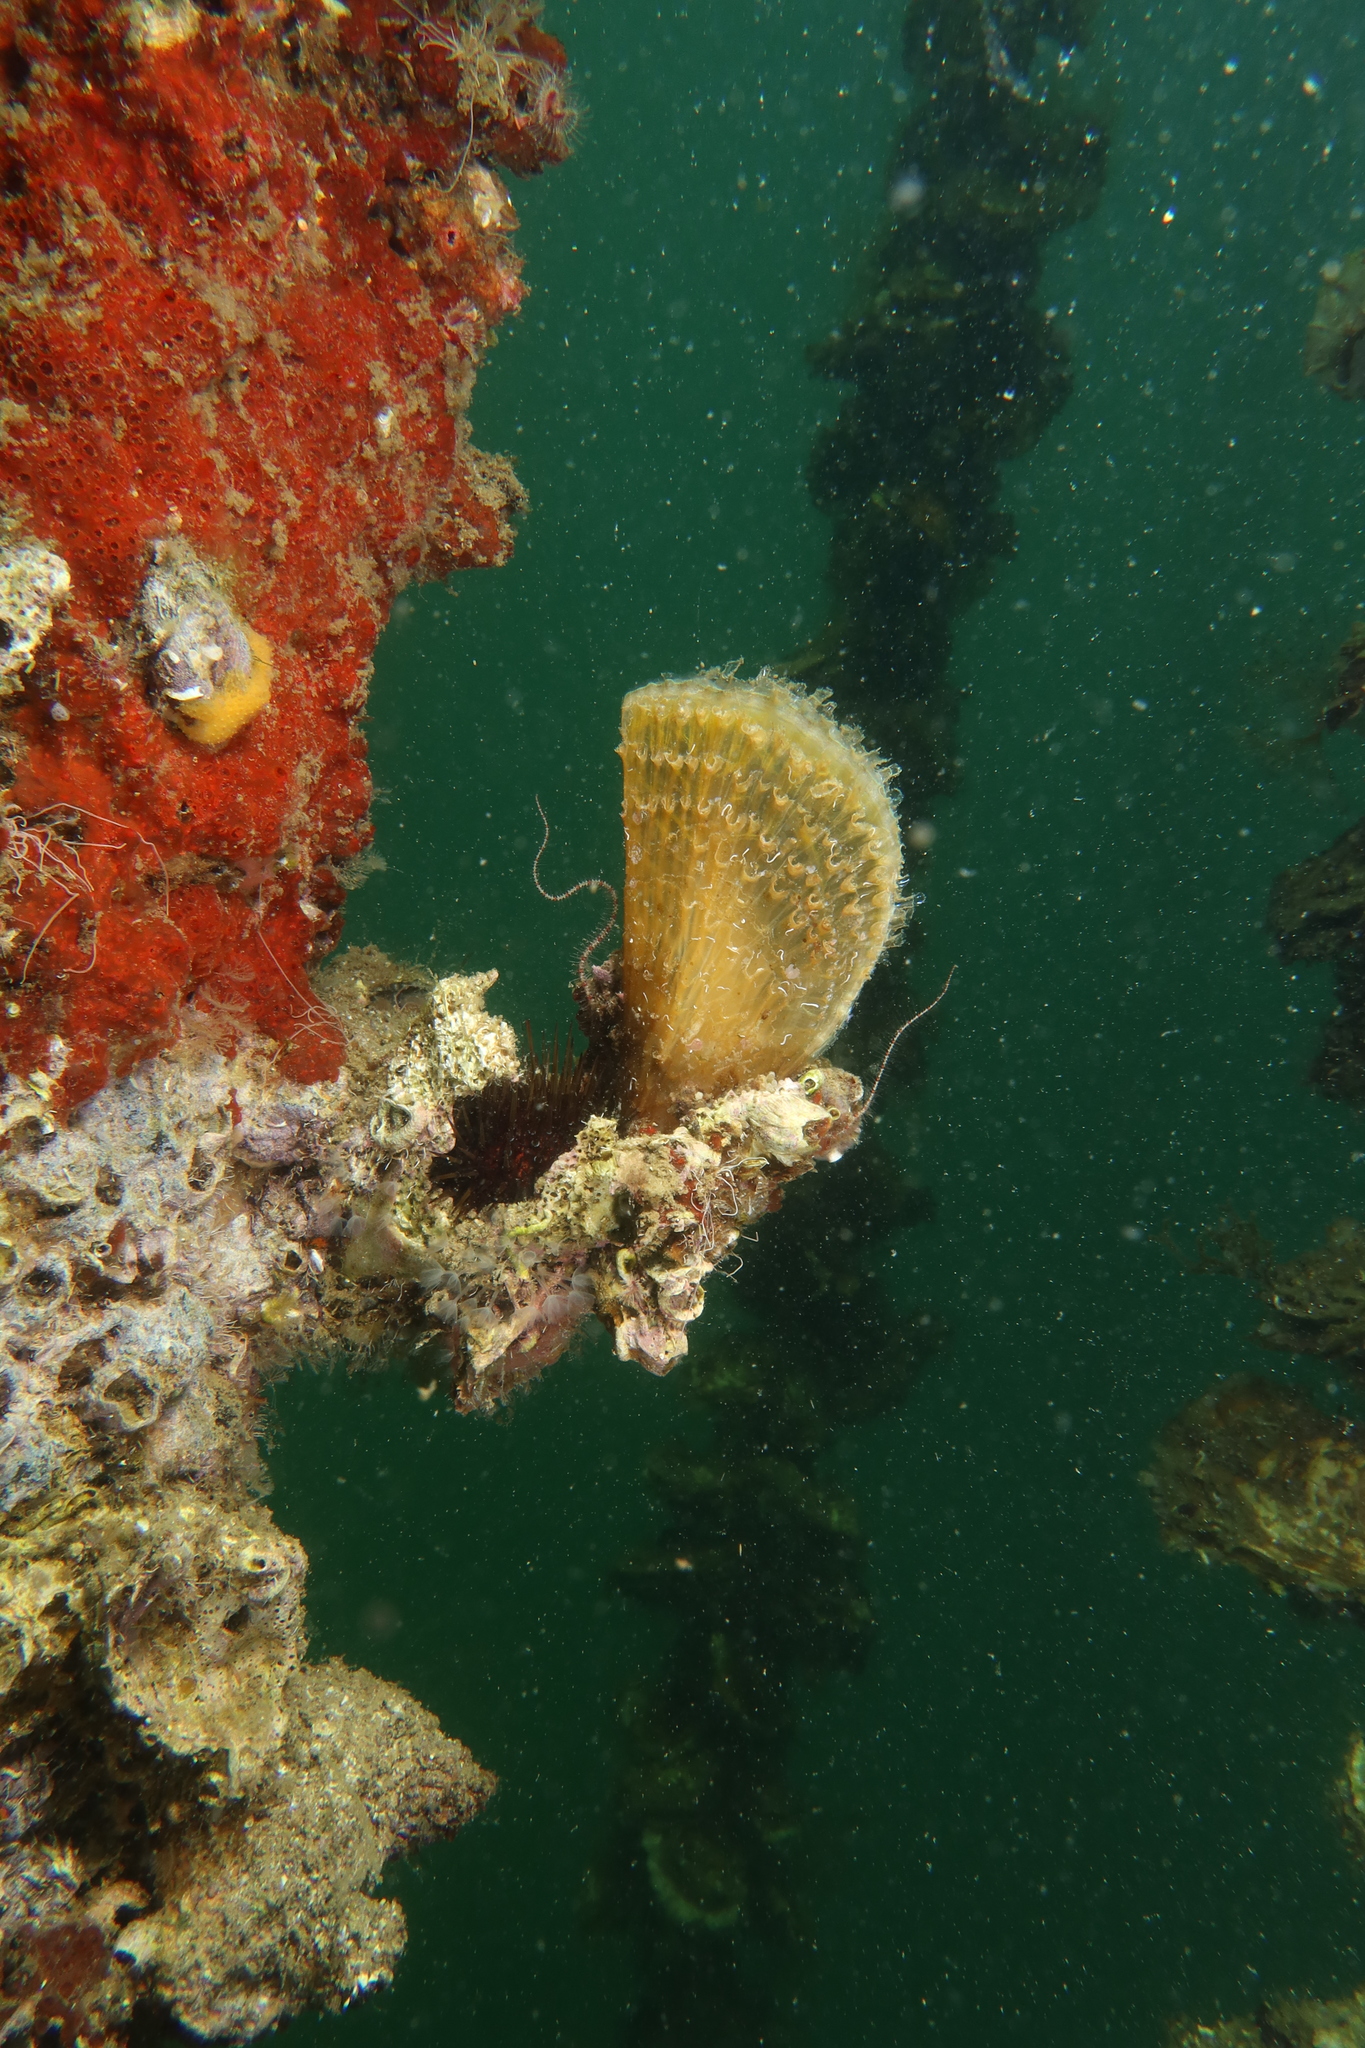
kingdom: Animalia
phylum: Mollusca
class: Bivalvia
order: Ostreida
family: Pinnidae
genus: Pinna
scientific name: Pinna nobilis
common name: Fan mussel
